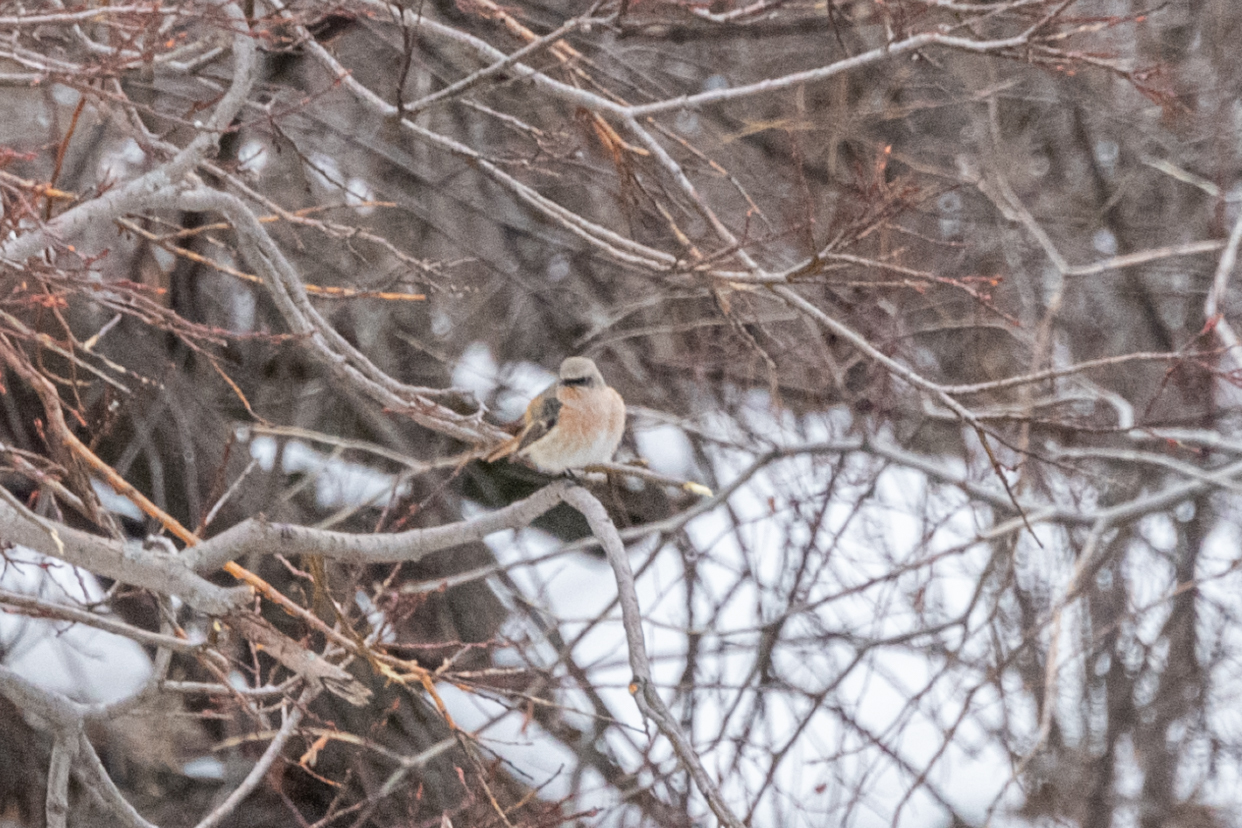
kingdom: Animalia
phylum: Chordata
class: Aves
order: Passeriformes
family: Muscicapidae
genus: Phoenicurus
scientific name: Phoenicurus erythronotus
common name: Eversmann's redstart
